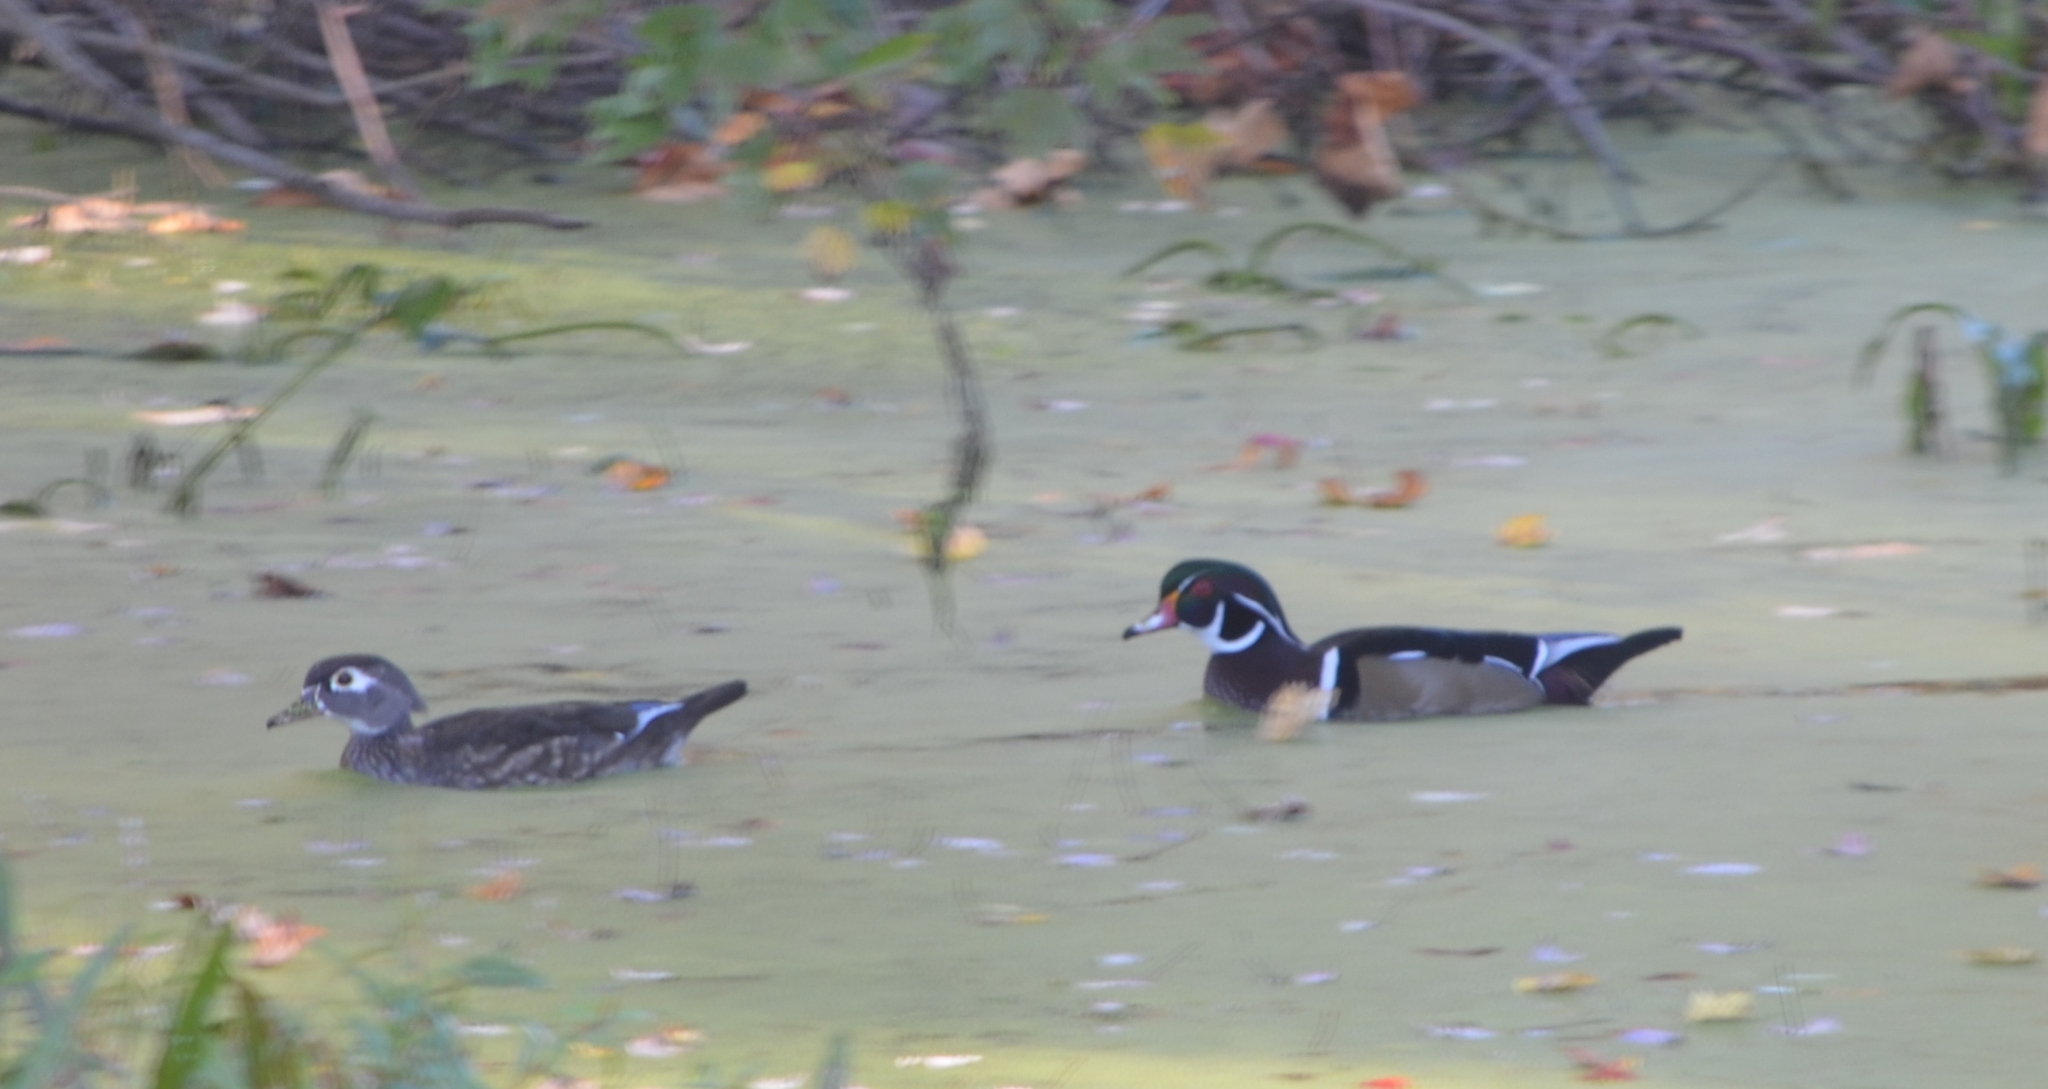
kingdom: Animalia
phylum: Chordata
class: Aves
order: Anseriformes
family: Anatidae
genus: Aix
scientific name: Aix sponsa
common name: Wood duck
